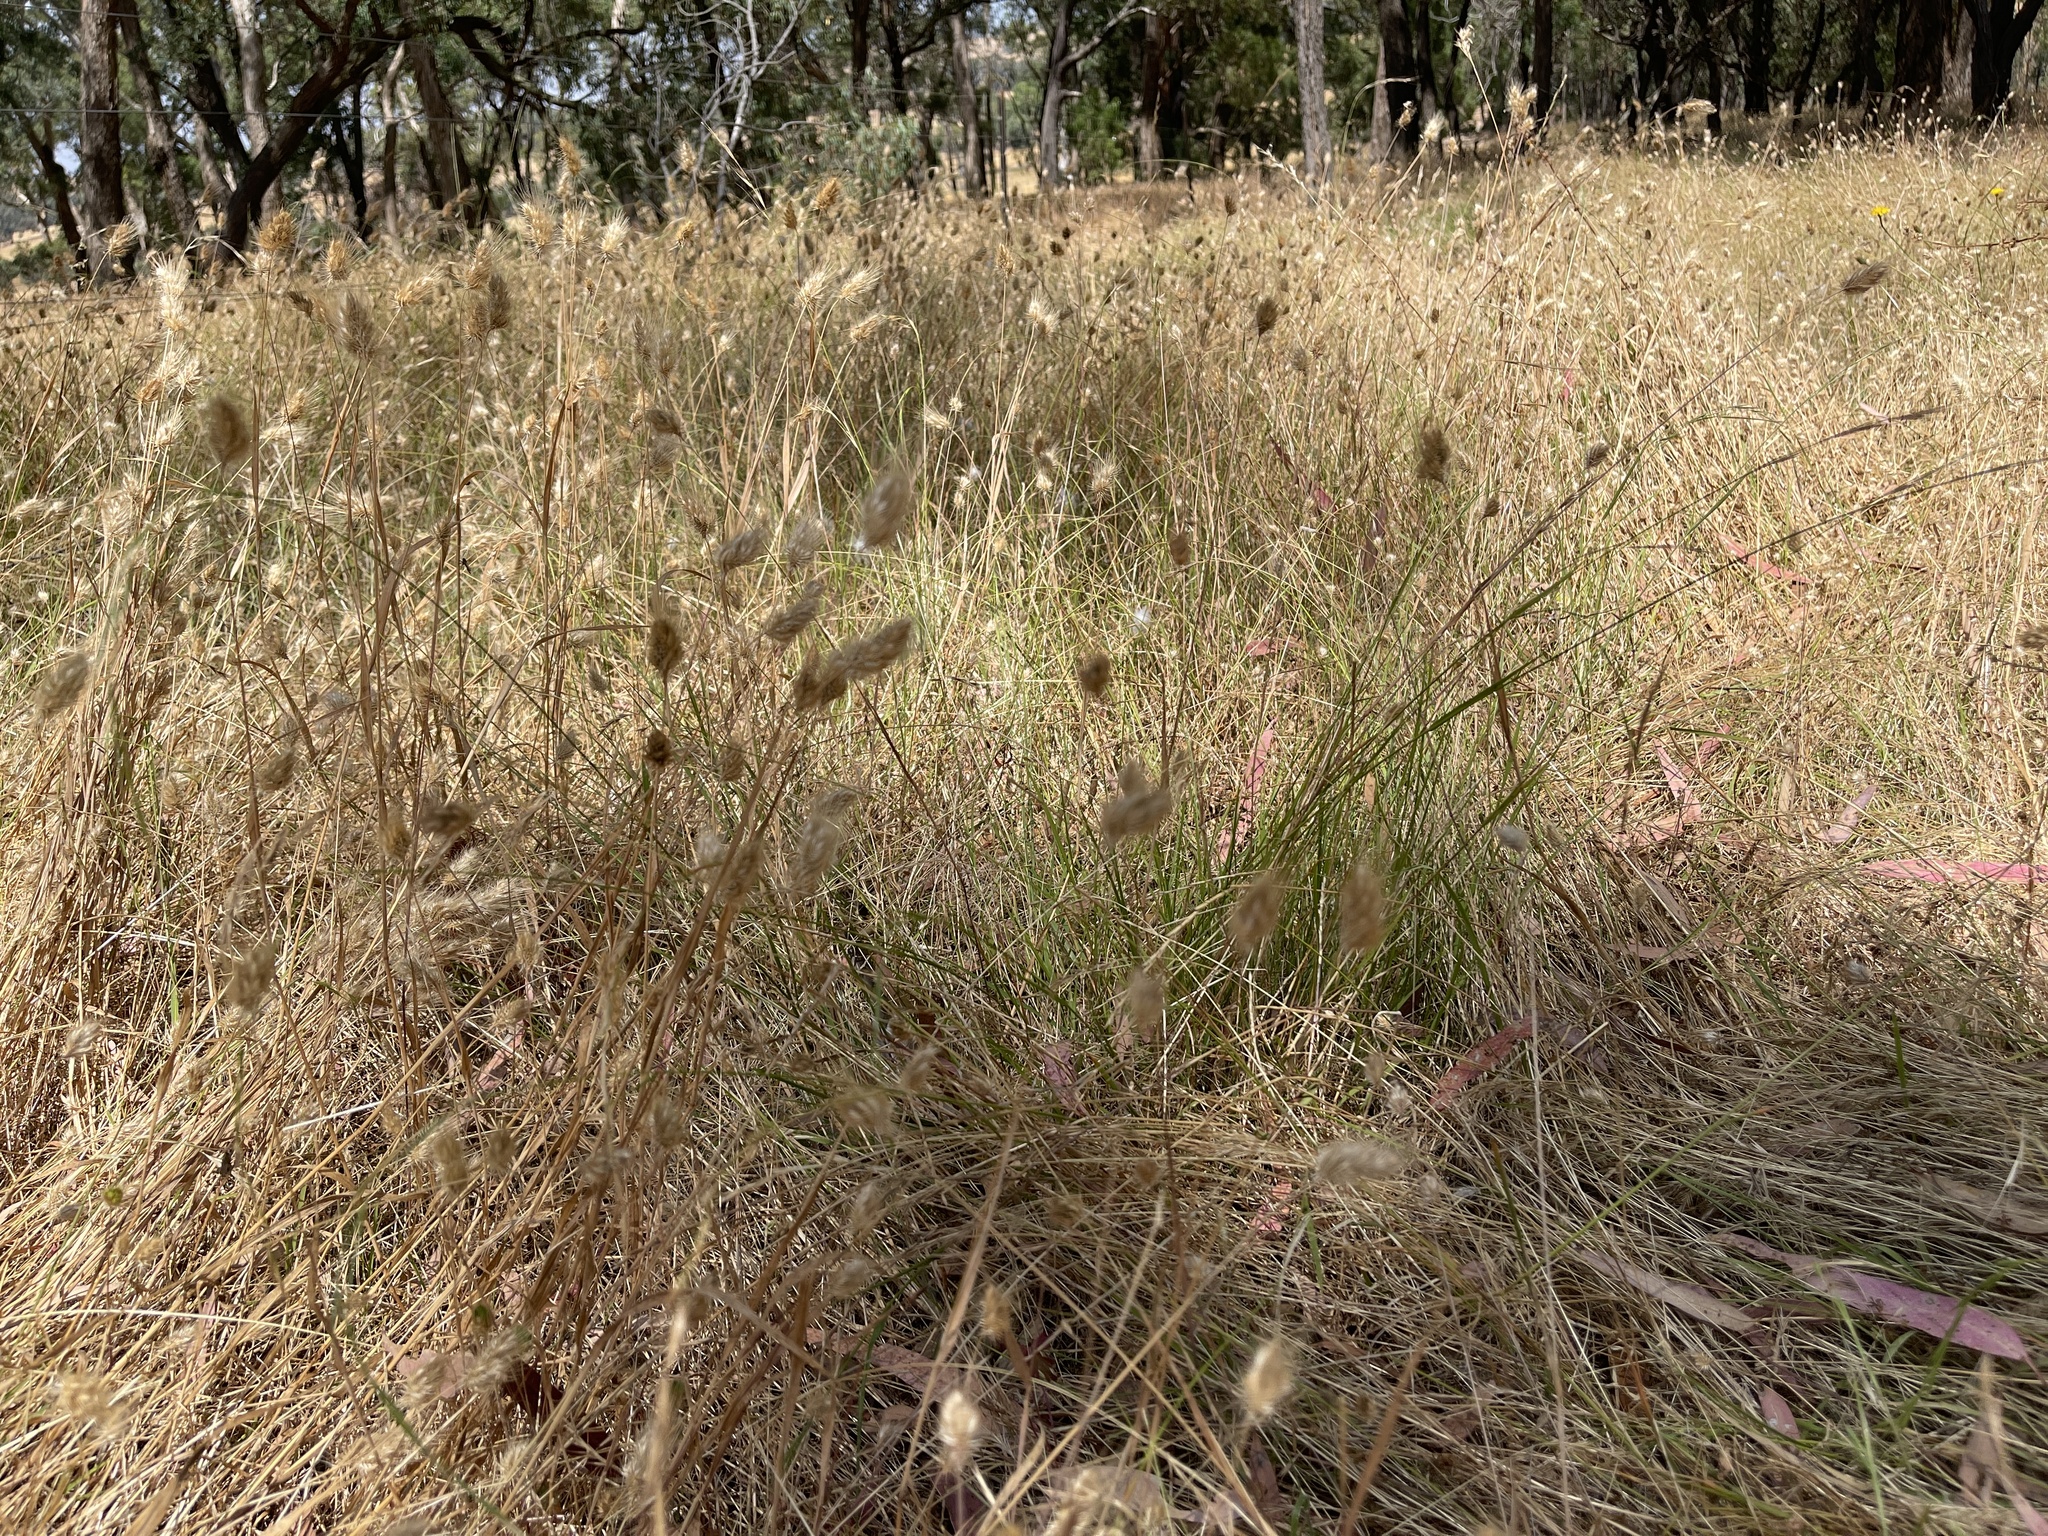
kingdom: Plantae
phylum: Tracheophyta
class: Liliopsida
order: Poales
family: Poaceae
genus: Cynosurus
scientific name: Cynosurus echinatus
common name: Rough dog's-tail
